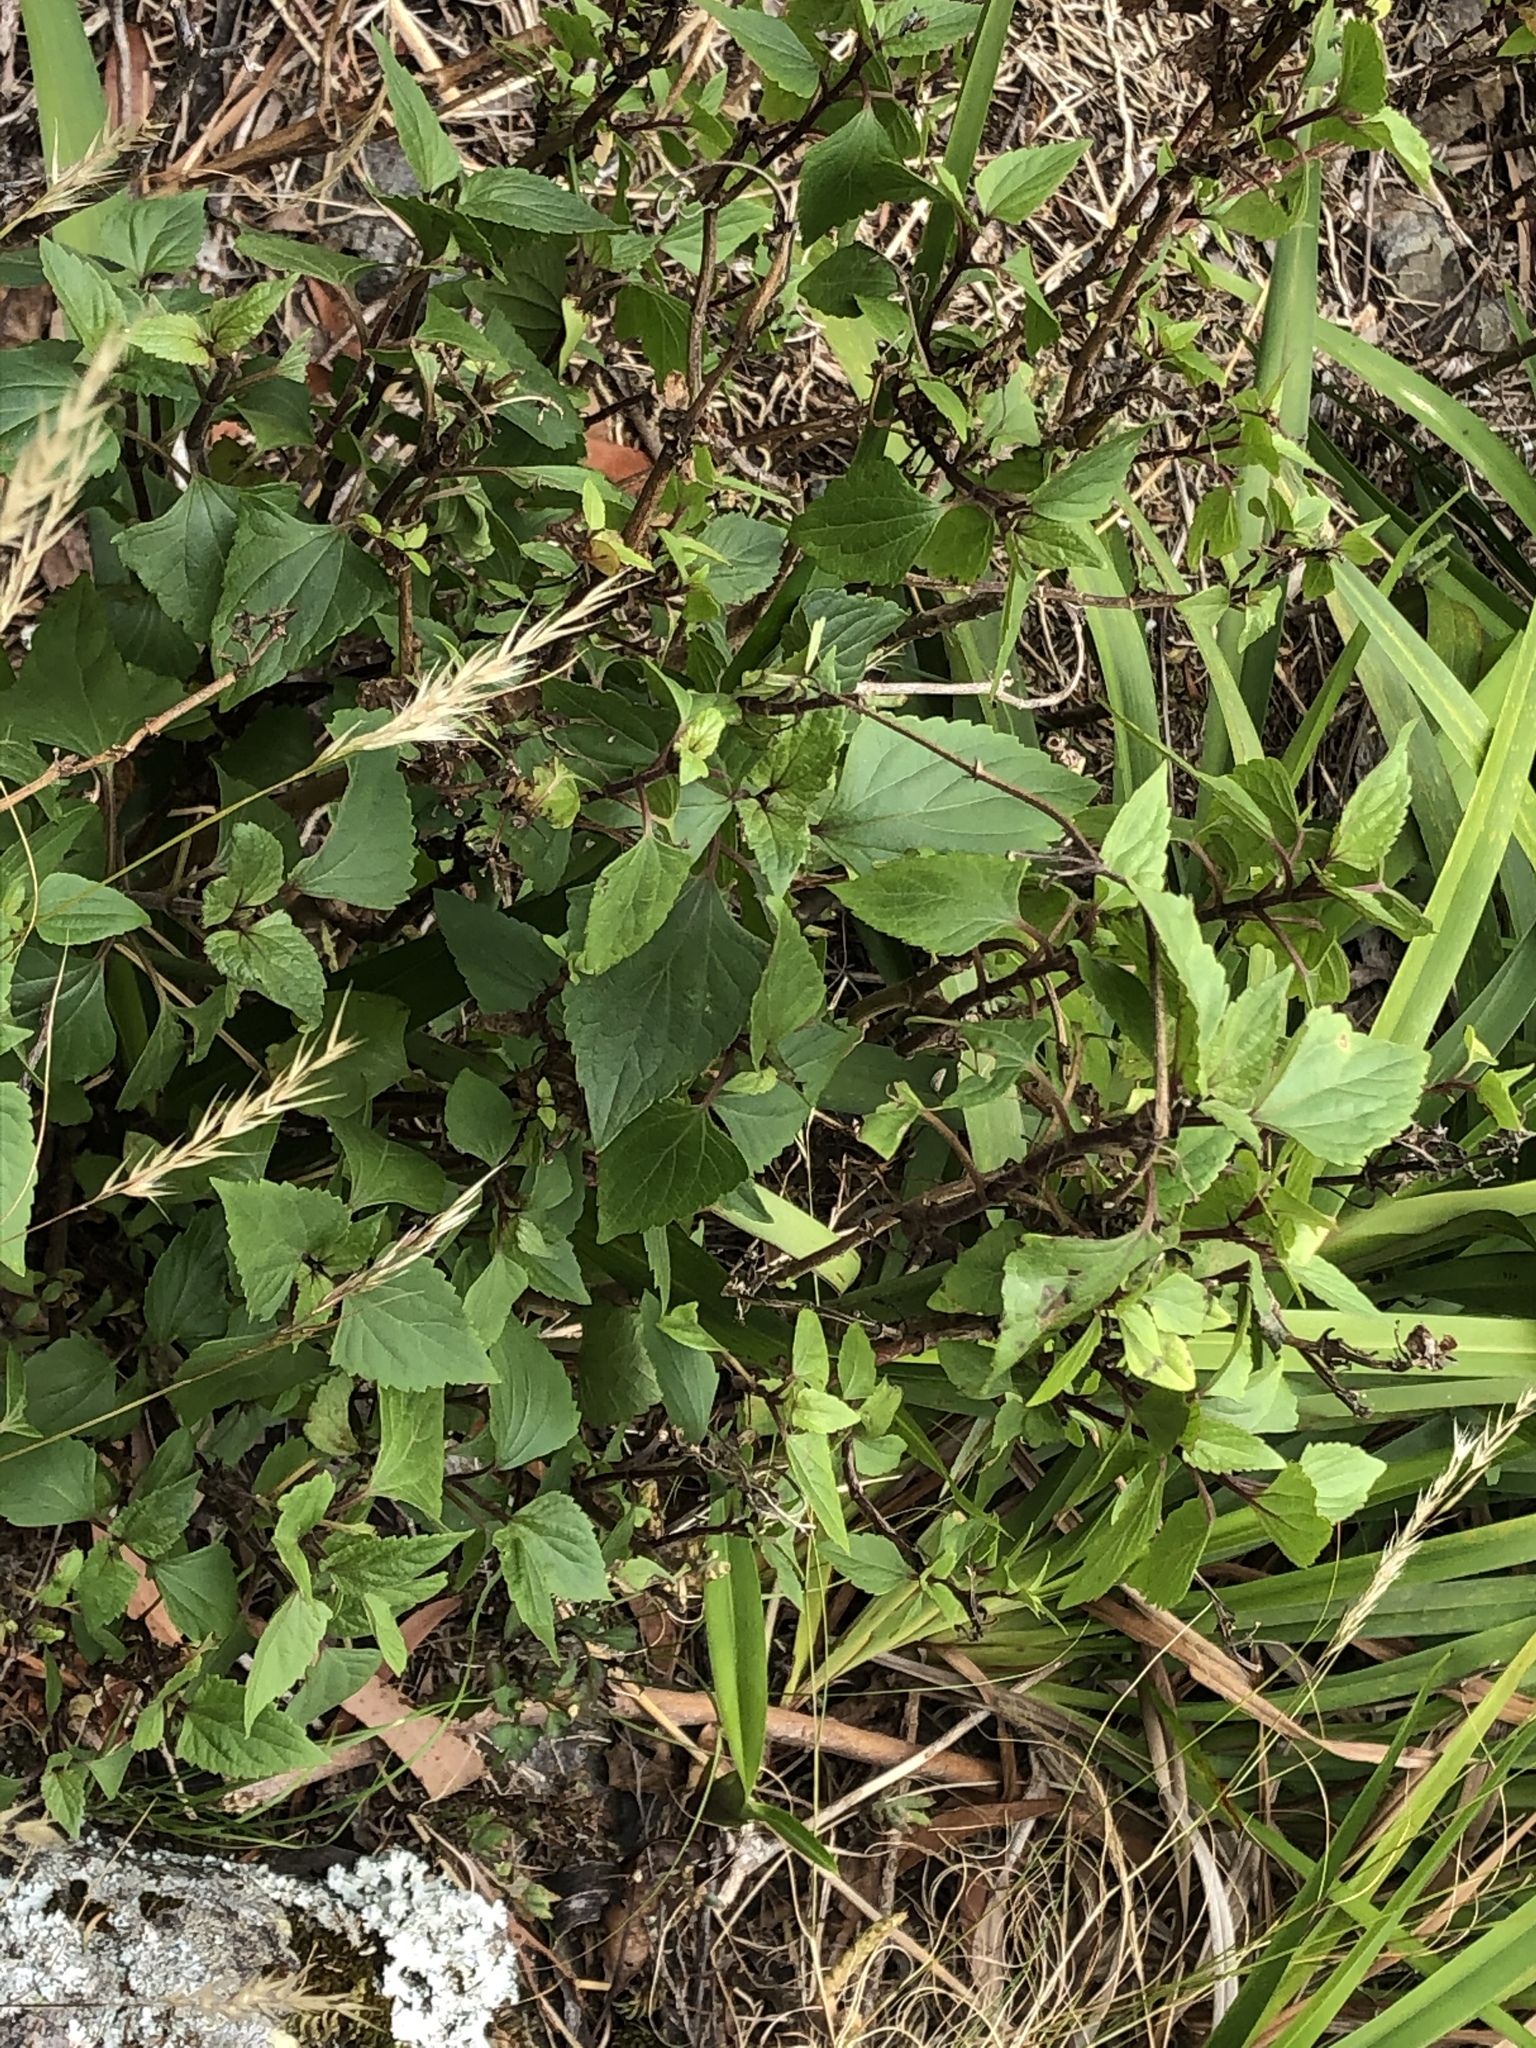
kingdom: Plantae
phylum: Tracheophyta
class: Magnoliopsida
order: Asterales
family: Asteraceae
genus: Ageratina
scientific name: Ageratina adenophora
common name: Sticky snakeroot
